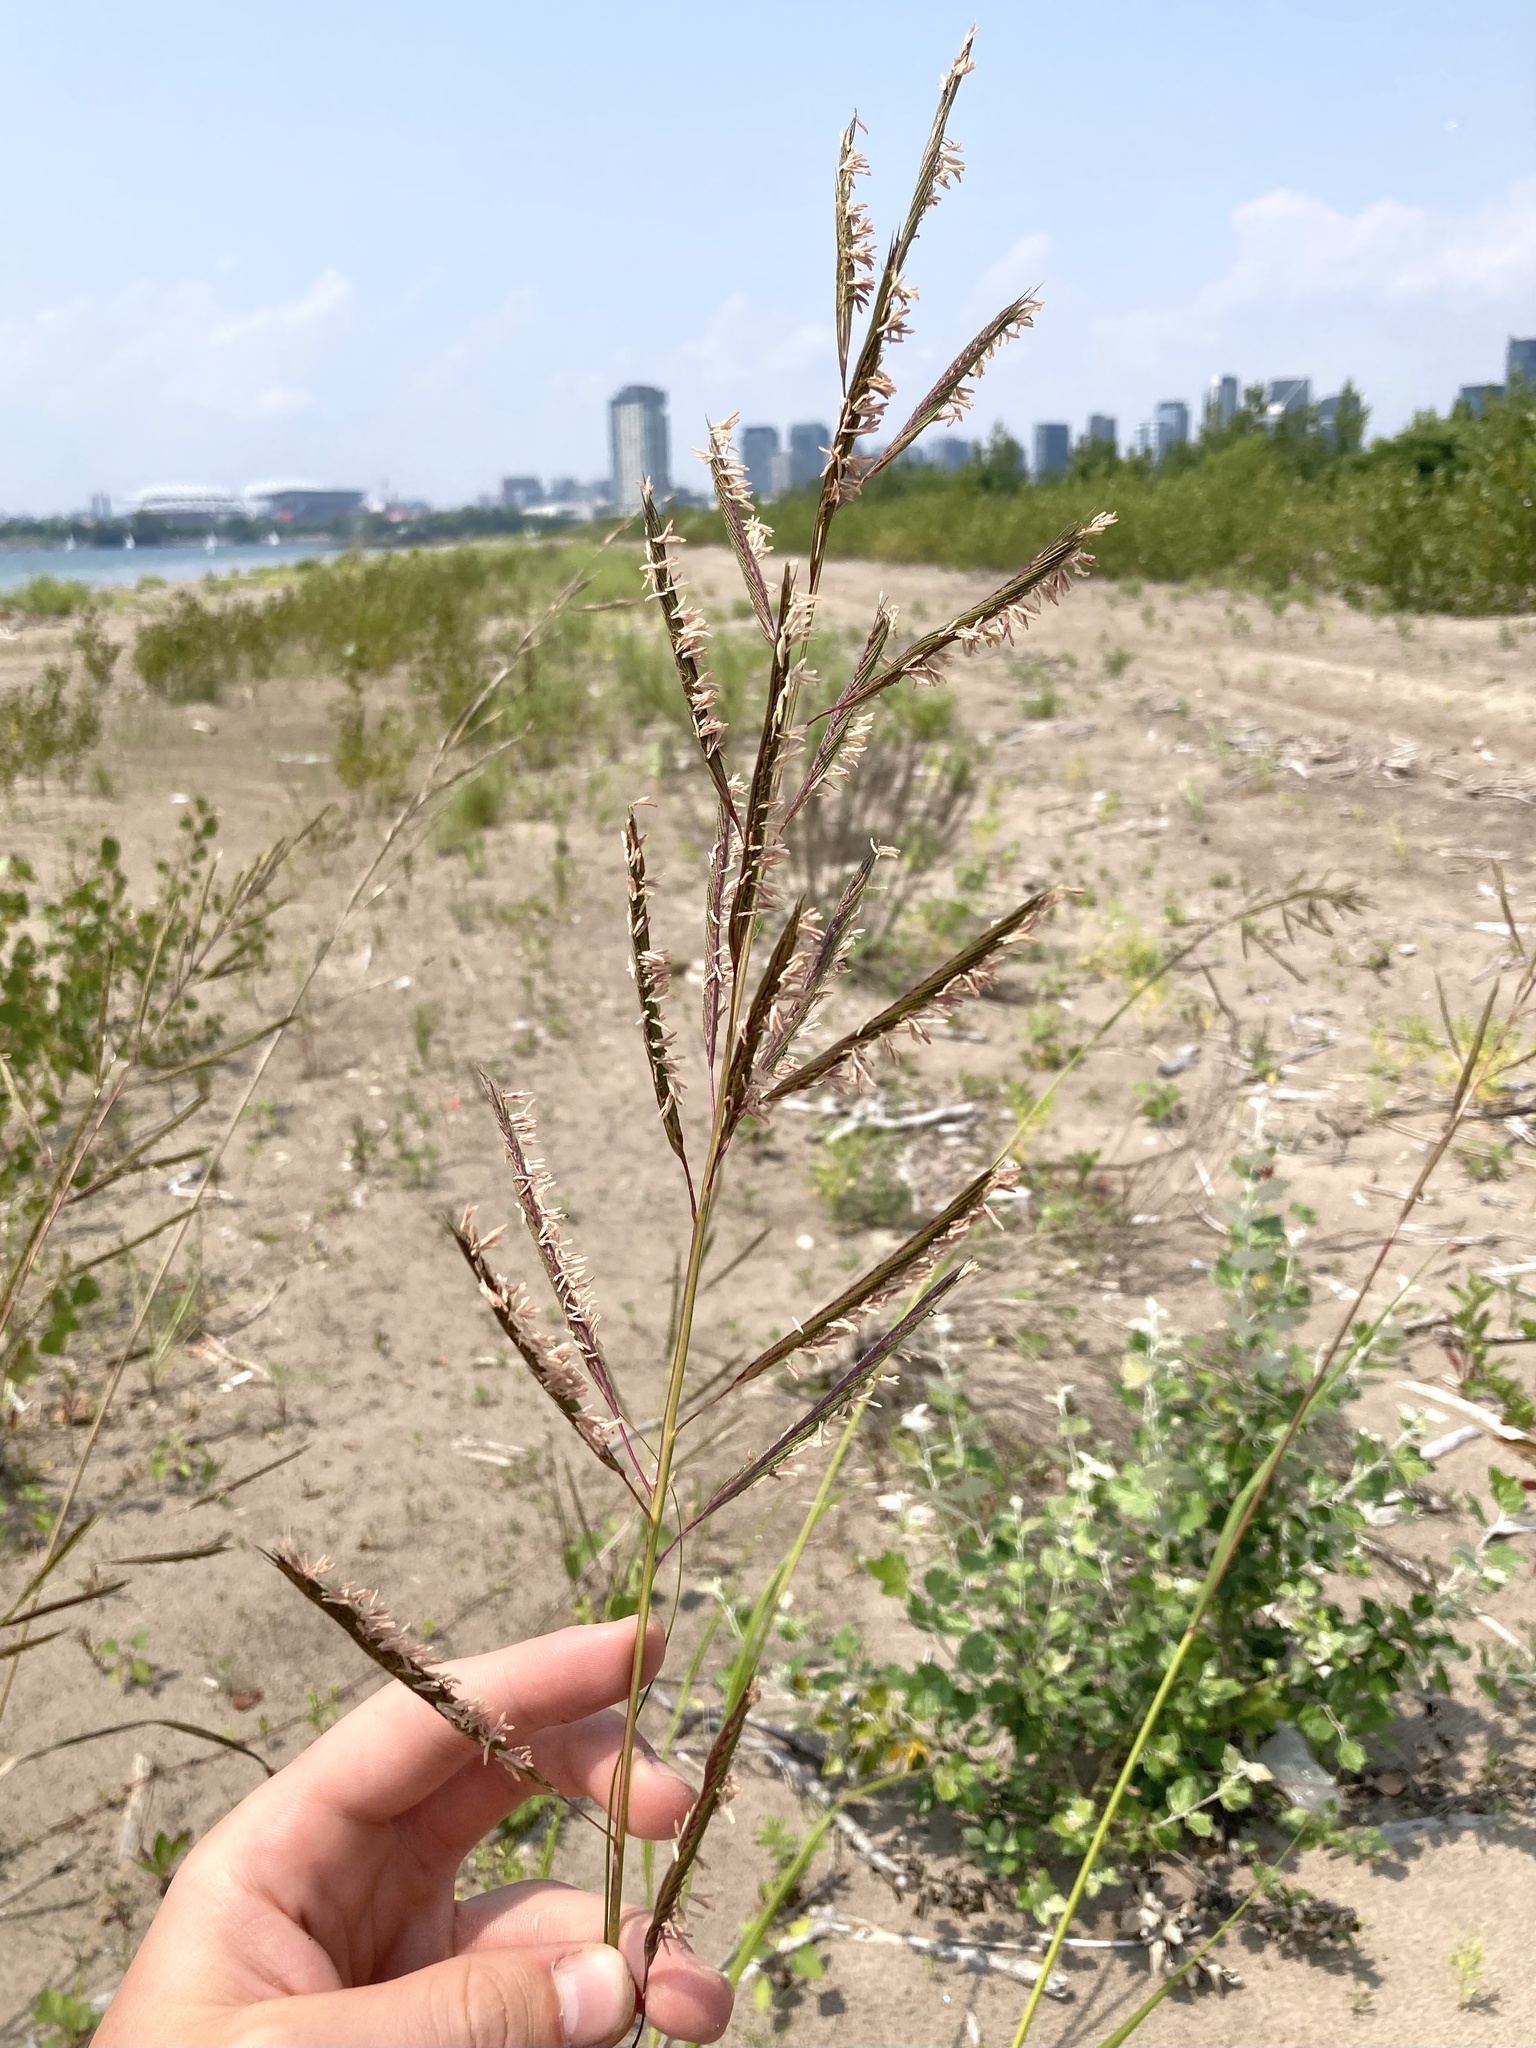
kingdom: Plantae
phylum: Tracheophyta
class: Liliopsida
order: Poales
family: Poaceae
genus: Sporobolus
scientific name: Sporobolus michauxianus
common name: Freshwater cordgrass
